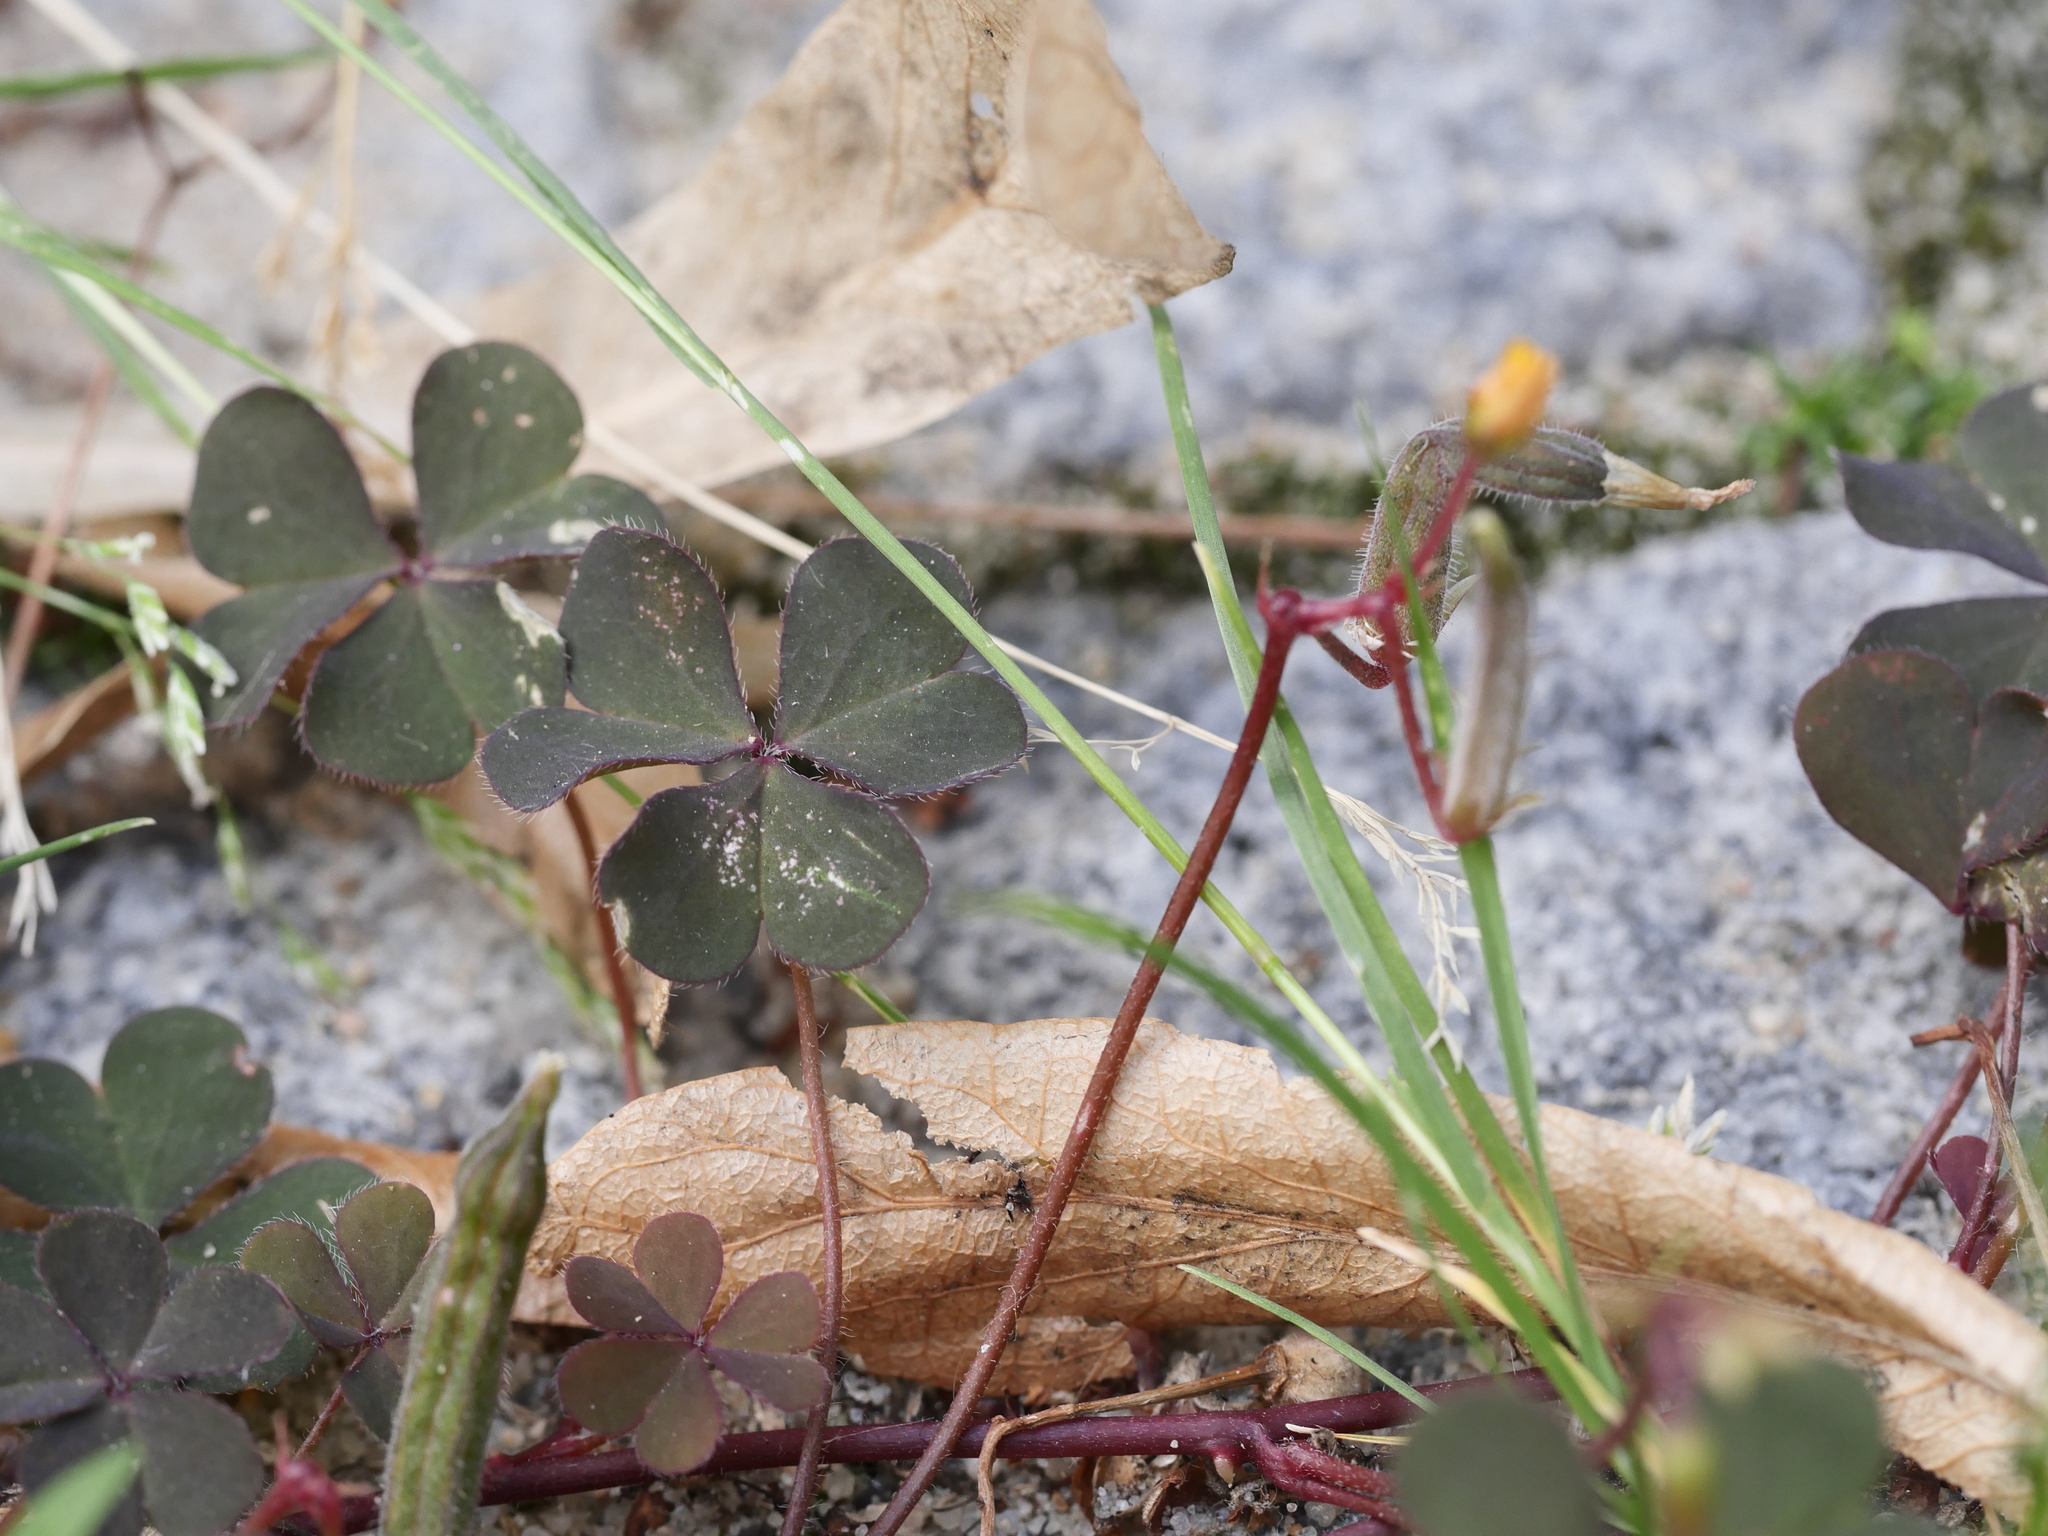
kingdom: Plantae
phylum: Tracheophyta
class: Magnoliopsida
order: Oxalidales
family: Oxalidaceae
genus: Oxalis
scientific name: Oxalis corniculata
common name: Procumbent yellow-sorrel
